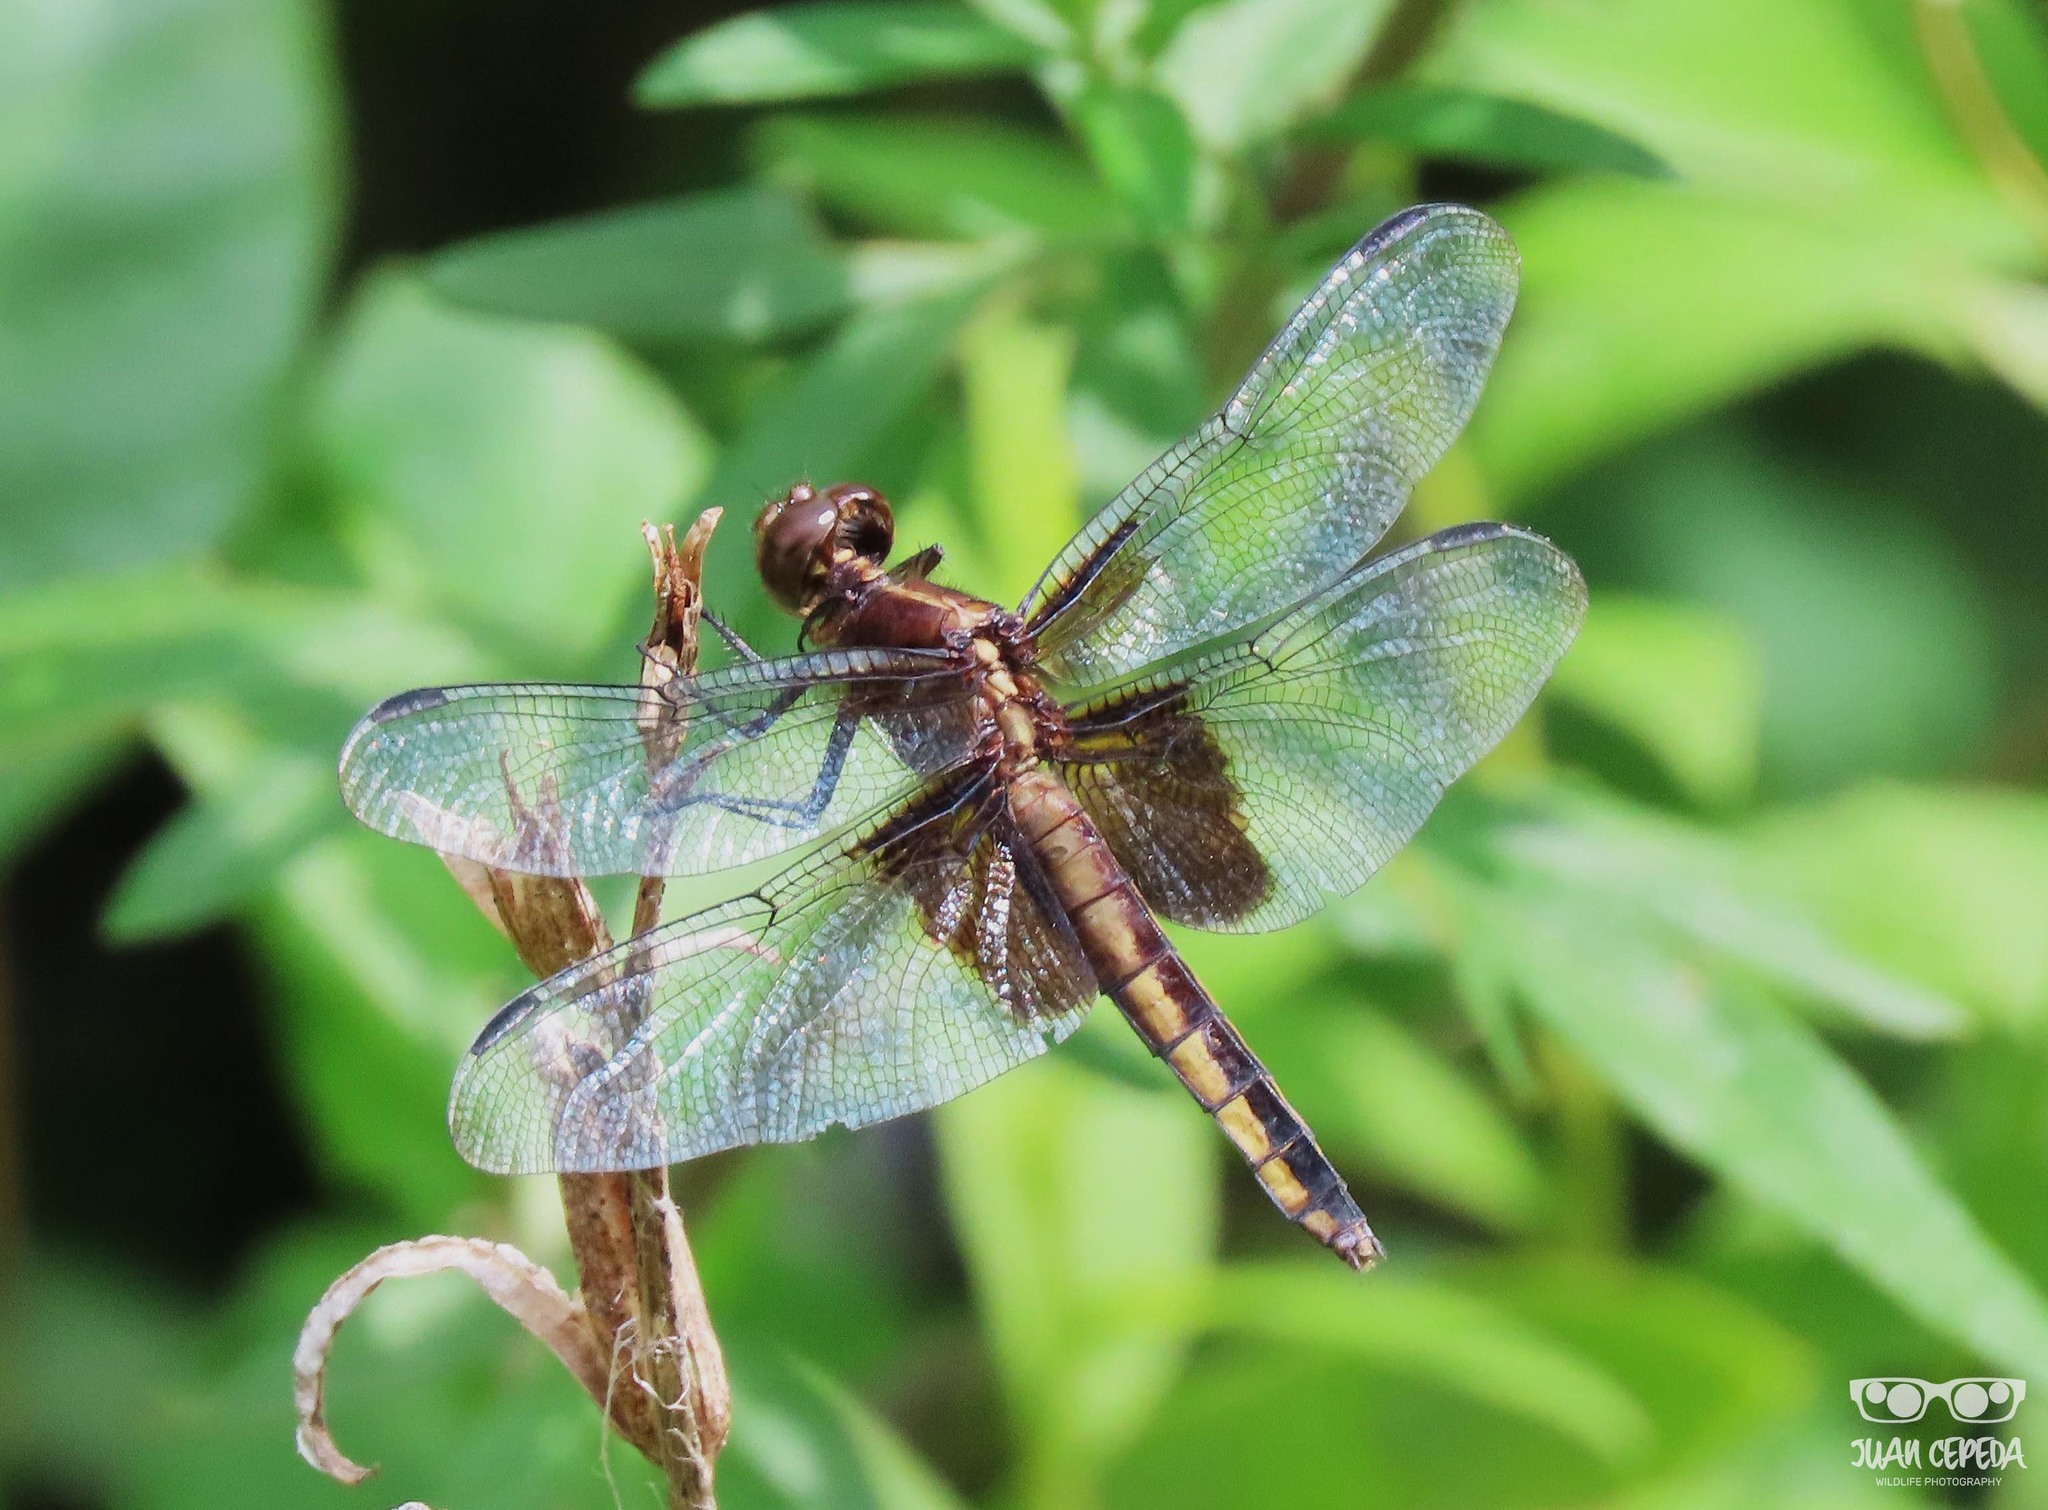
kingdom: Animalia
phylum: Arthropoda
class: Insecta
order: Odonata
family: Libellulidae
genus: Libellula
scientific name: Libellula luctuosa
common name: Widow skimmer
